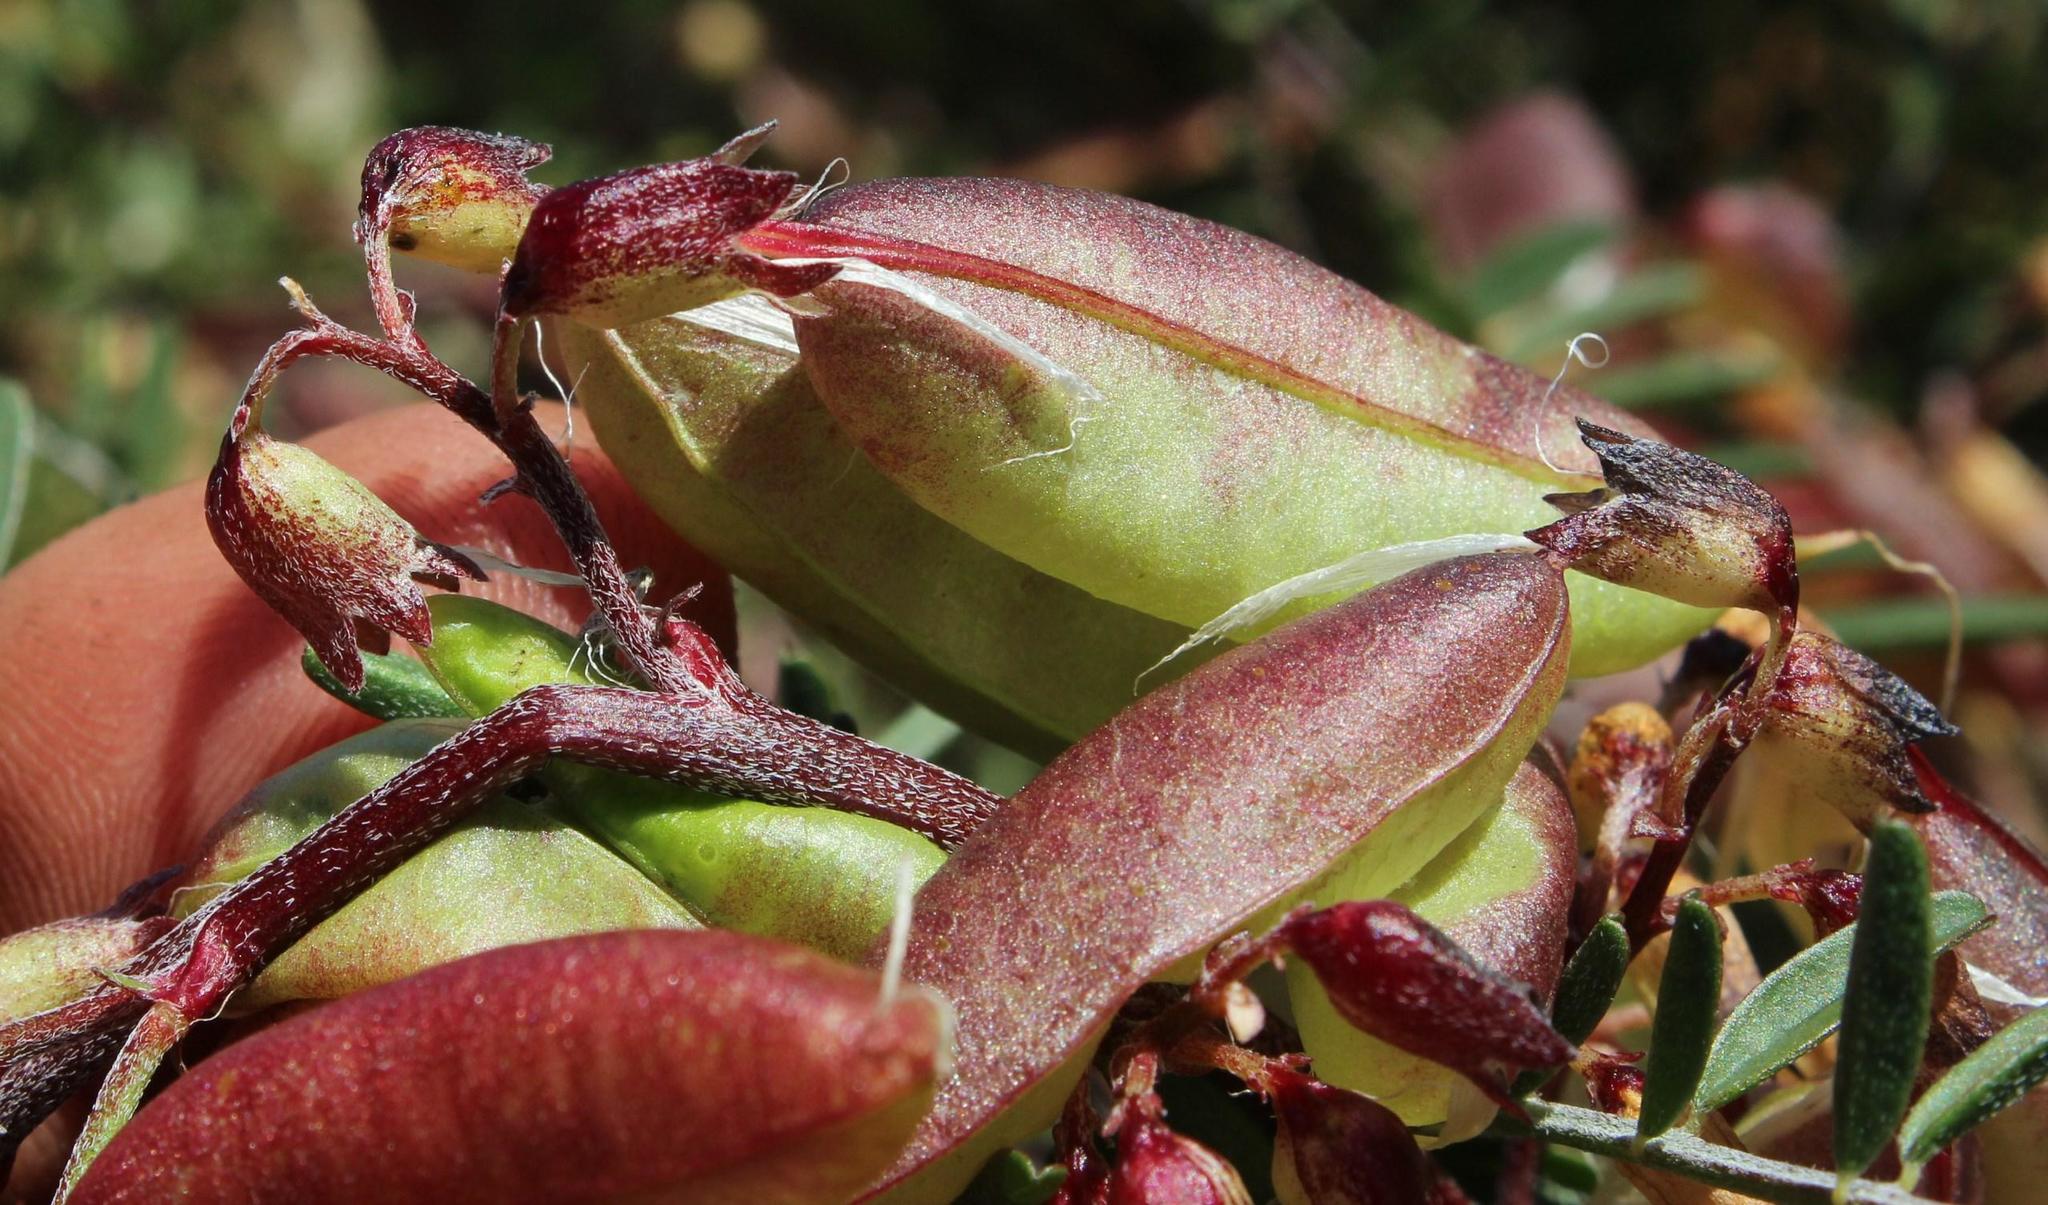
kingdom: Plantae
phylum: Tracheophyta
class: Magnoliopsida
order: Fabales
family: Fabaceae
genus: Lessertia
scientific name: Lessertia frutescens
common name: Balloon-pea
